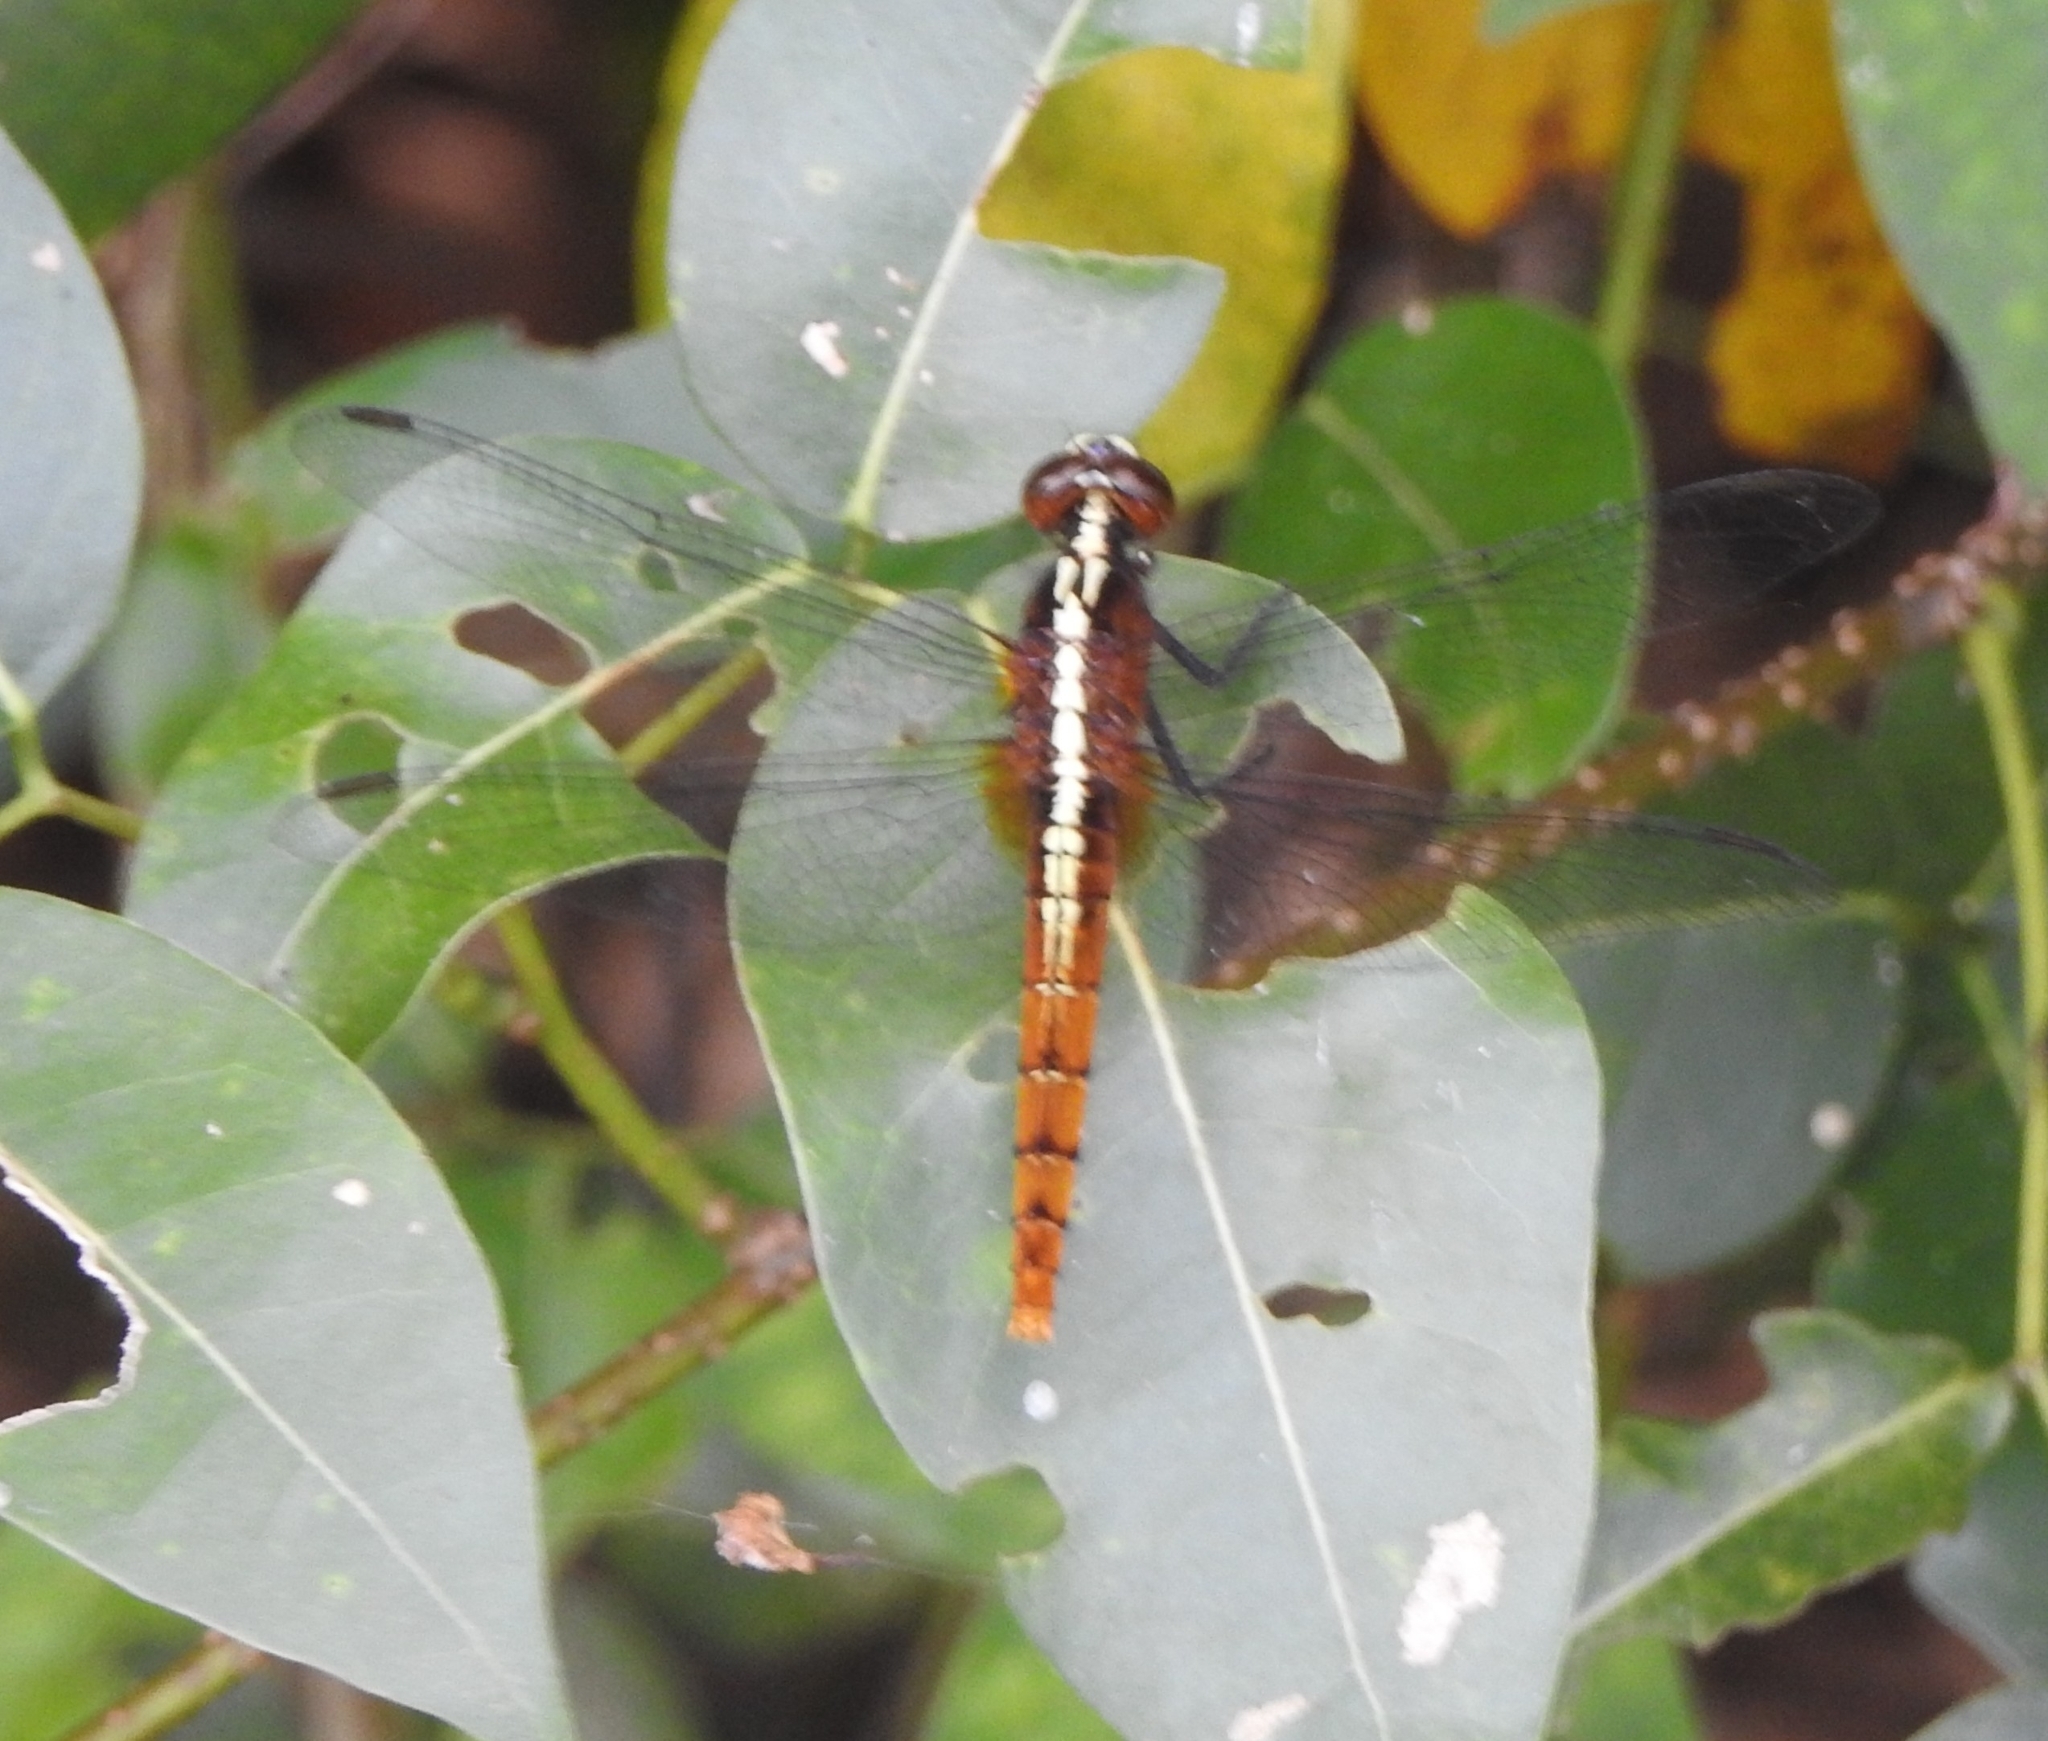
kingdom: Animalia
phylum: Arthropoda
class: Insecta
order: Odonata
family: Libellulidae
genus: Rhodothemis
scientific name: Rhodothemis rufa
